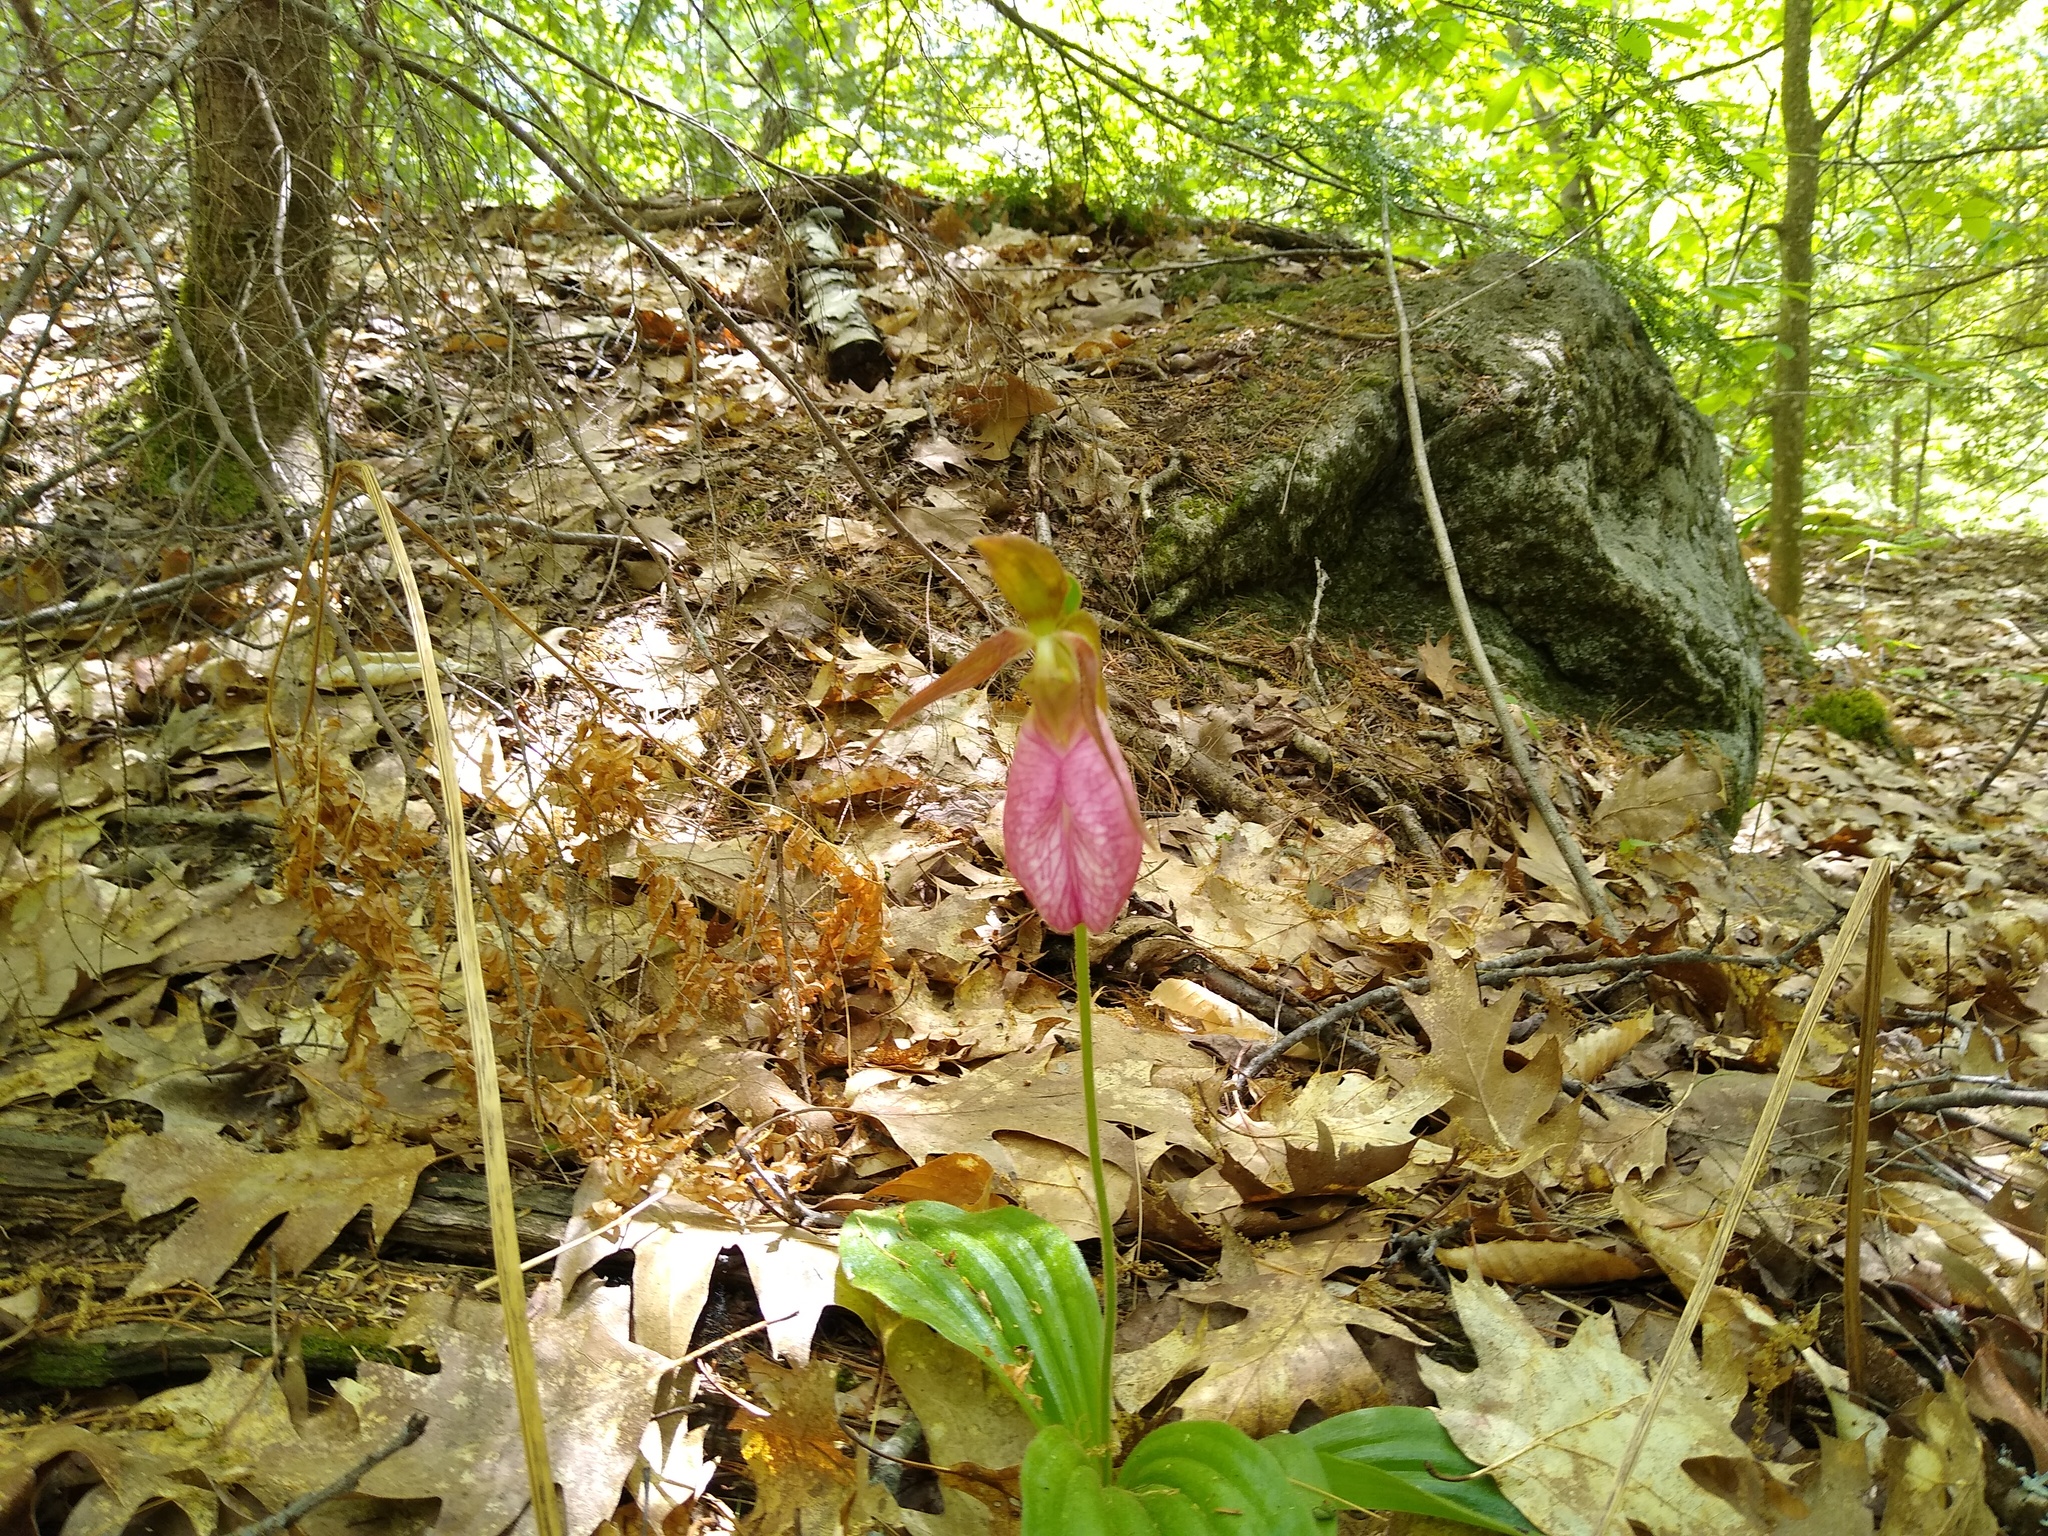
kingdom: Plantae
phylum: Tracheophyta
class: Liliopsida
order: Asparagales
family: Orchidaceae
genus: Cypripedium
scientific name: Cypripedium acaule
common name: Pink lady's-slipper
